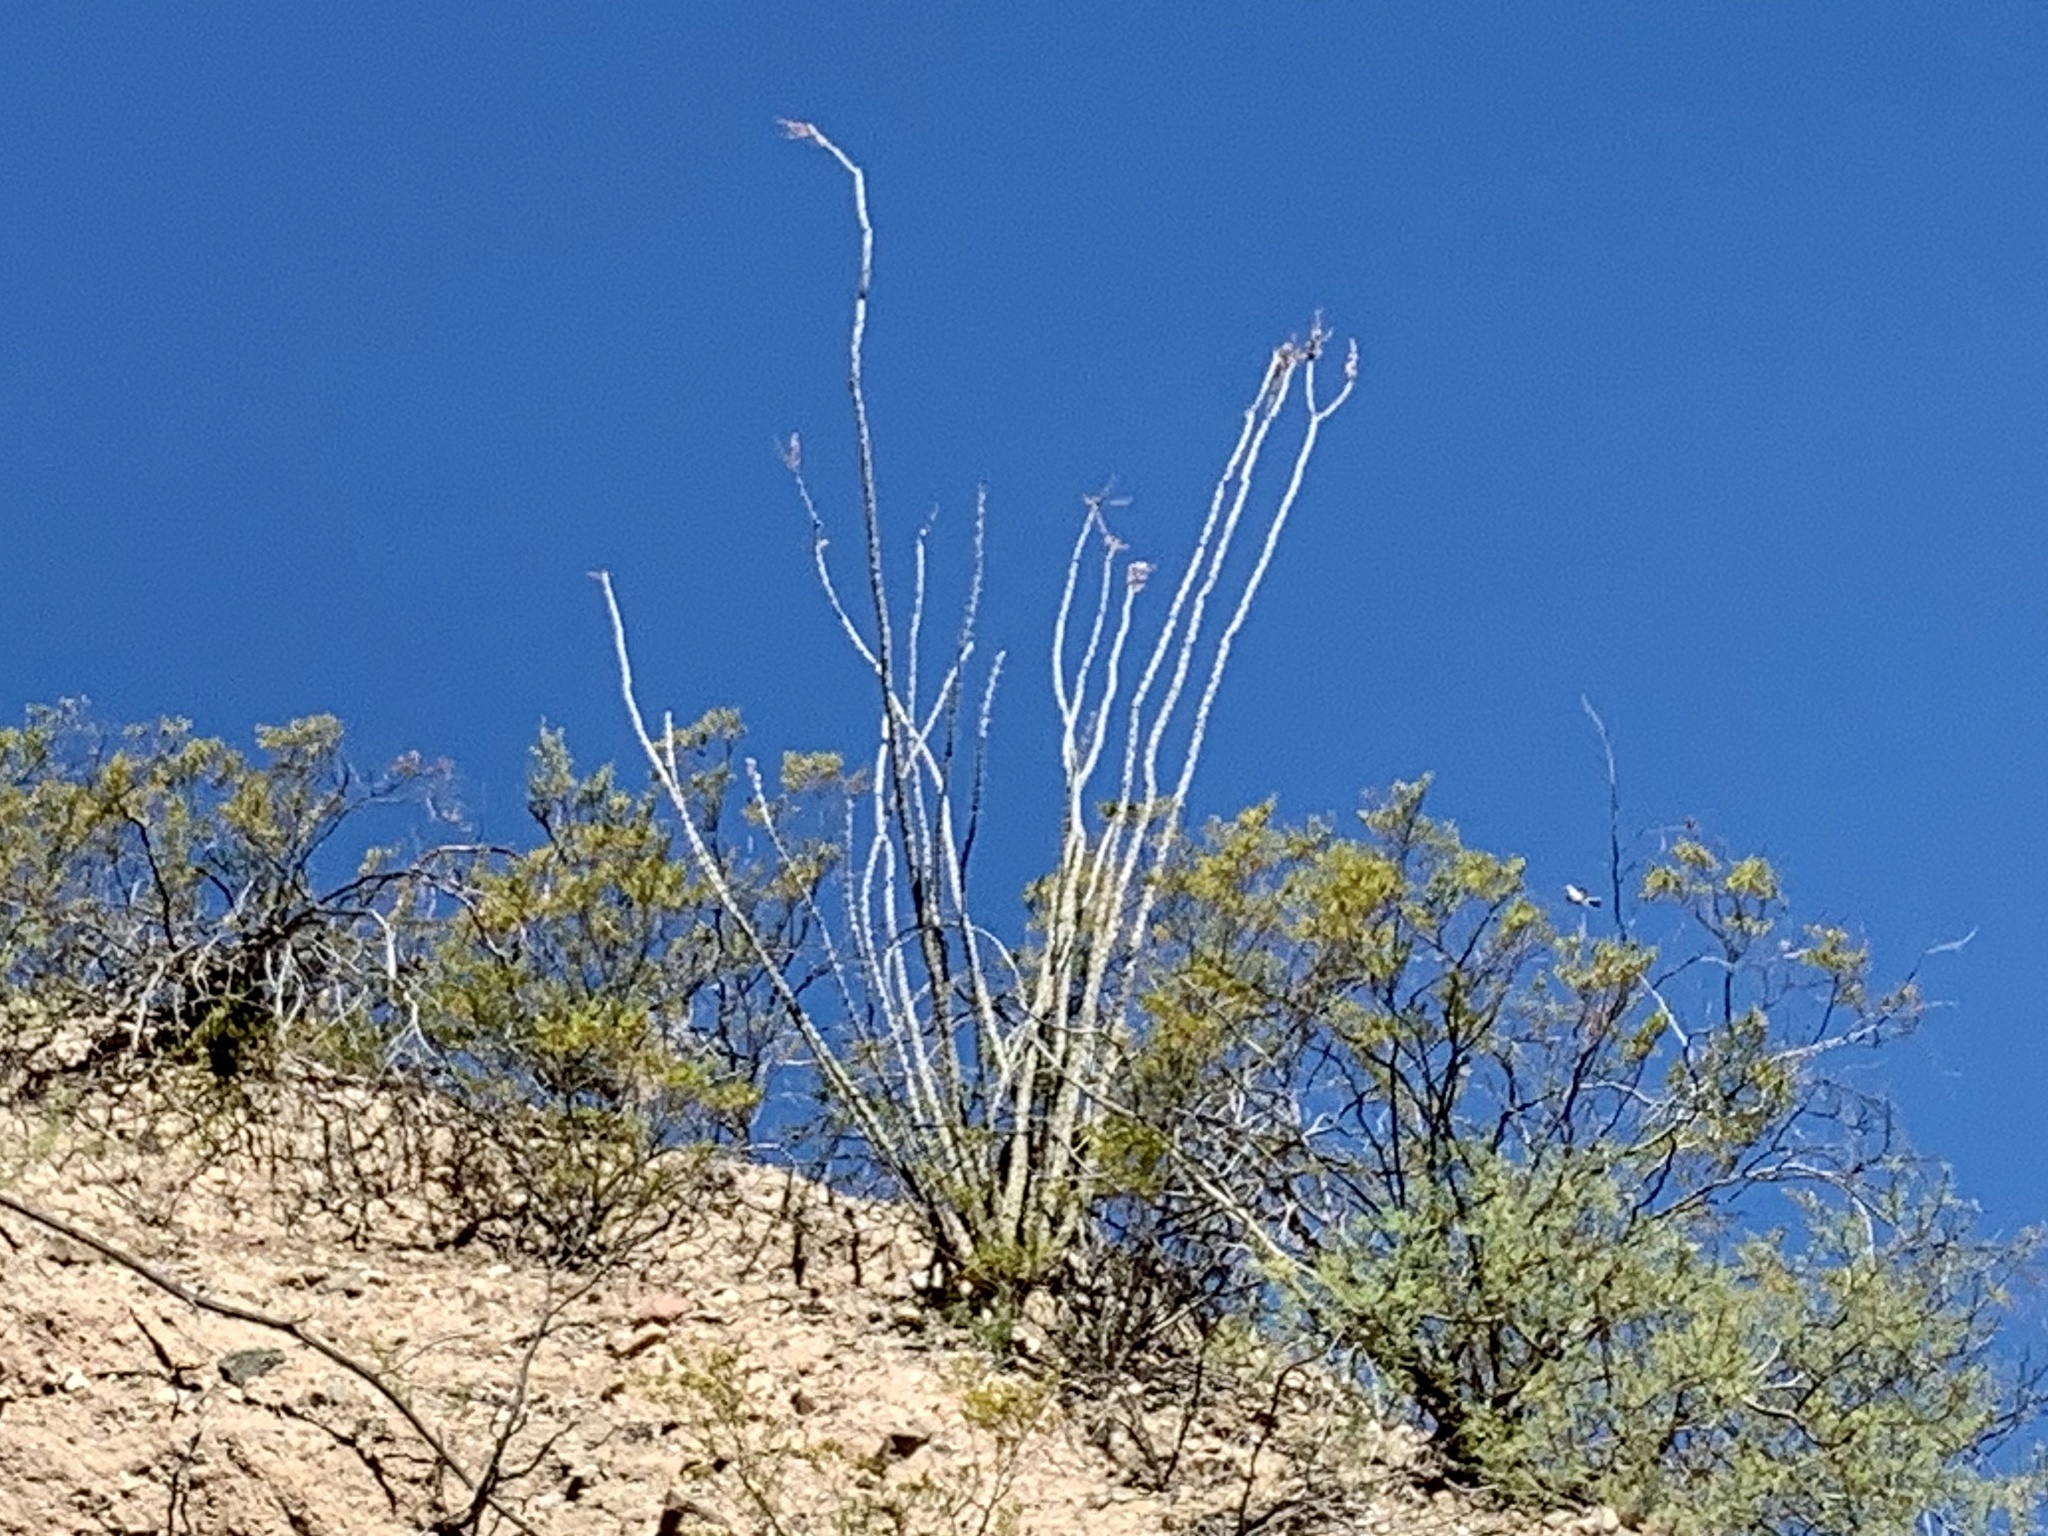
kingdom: Plantae
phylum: Tracheophyta
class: Magnoliopsida
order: Ericales
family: Fouquieriaceae
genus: Fouquieria
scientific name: Fouquieria splendens
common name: Vine-cactus
